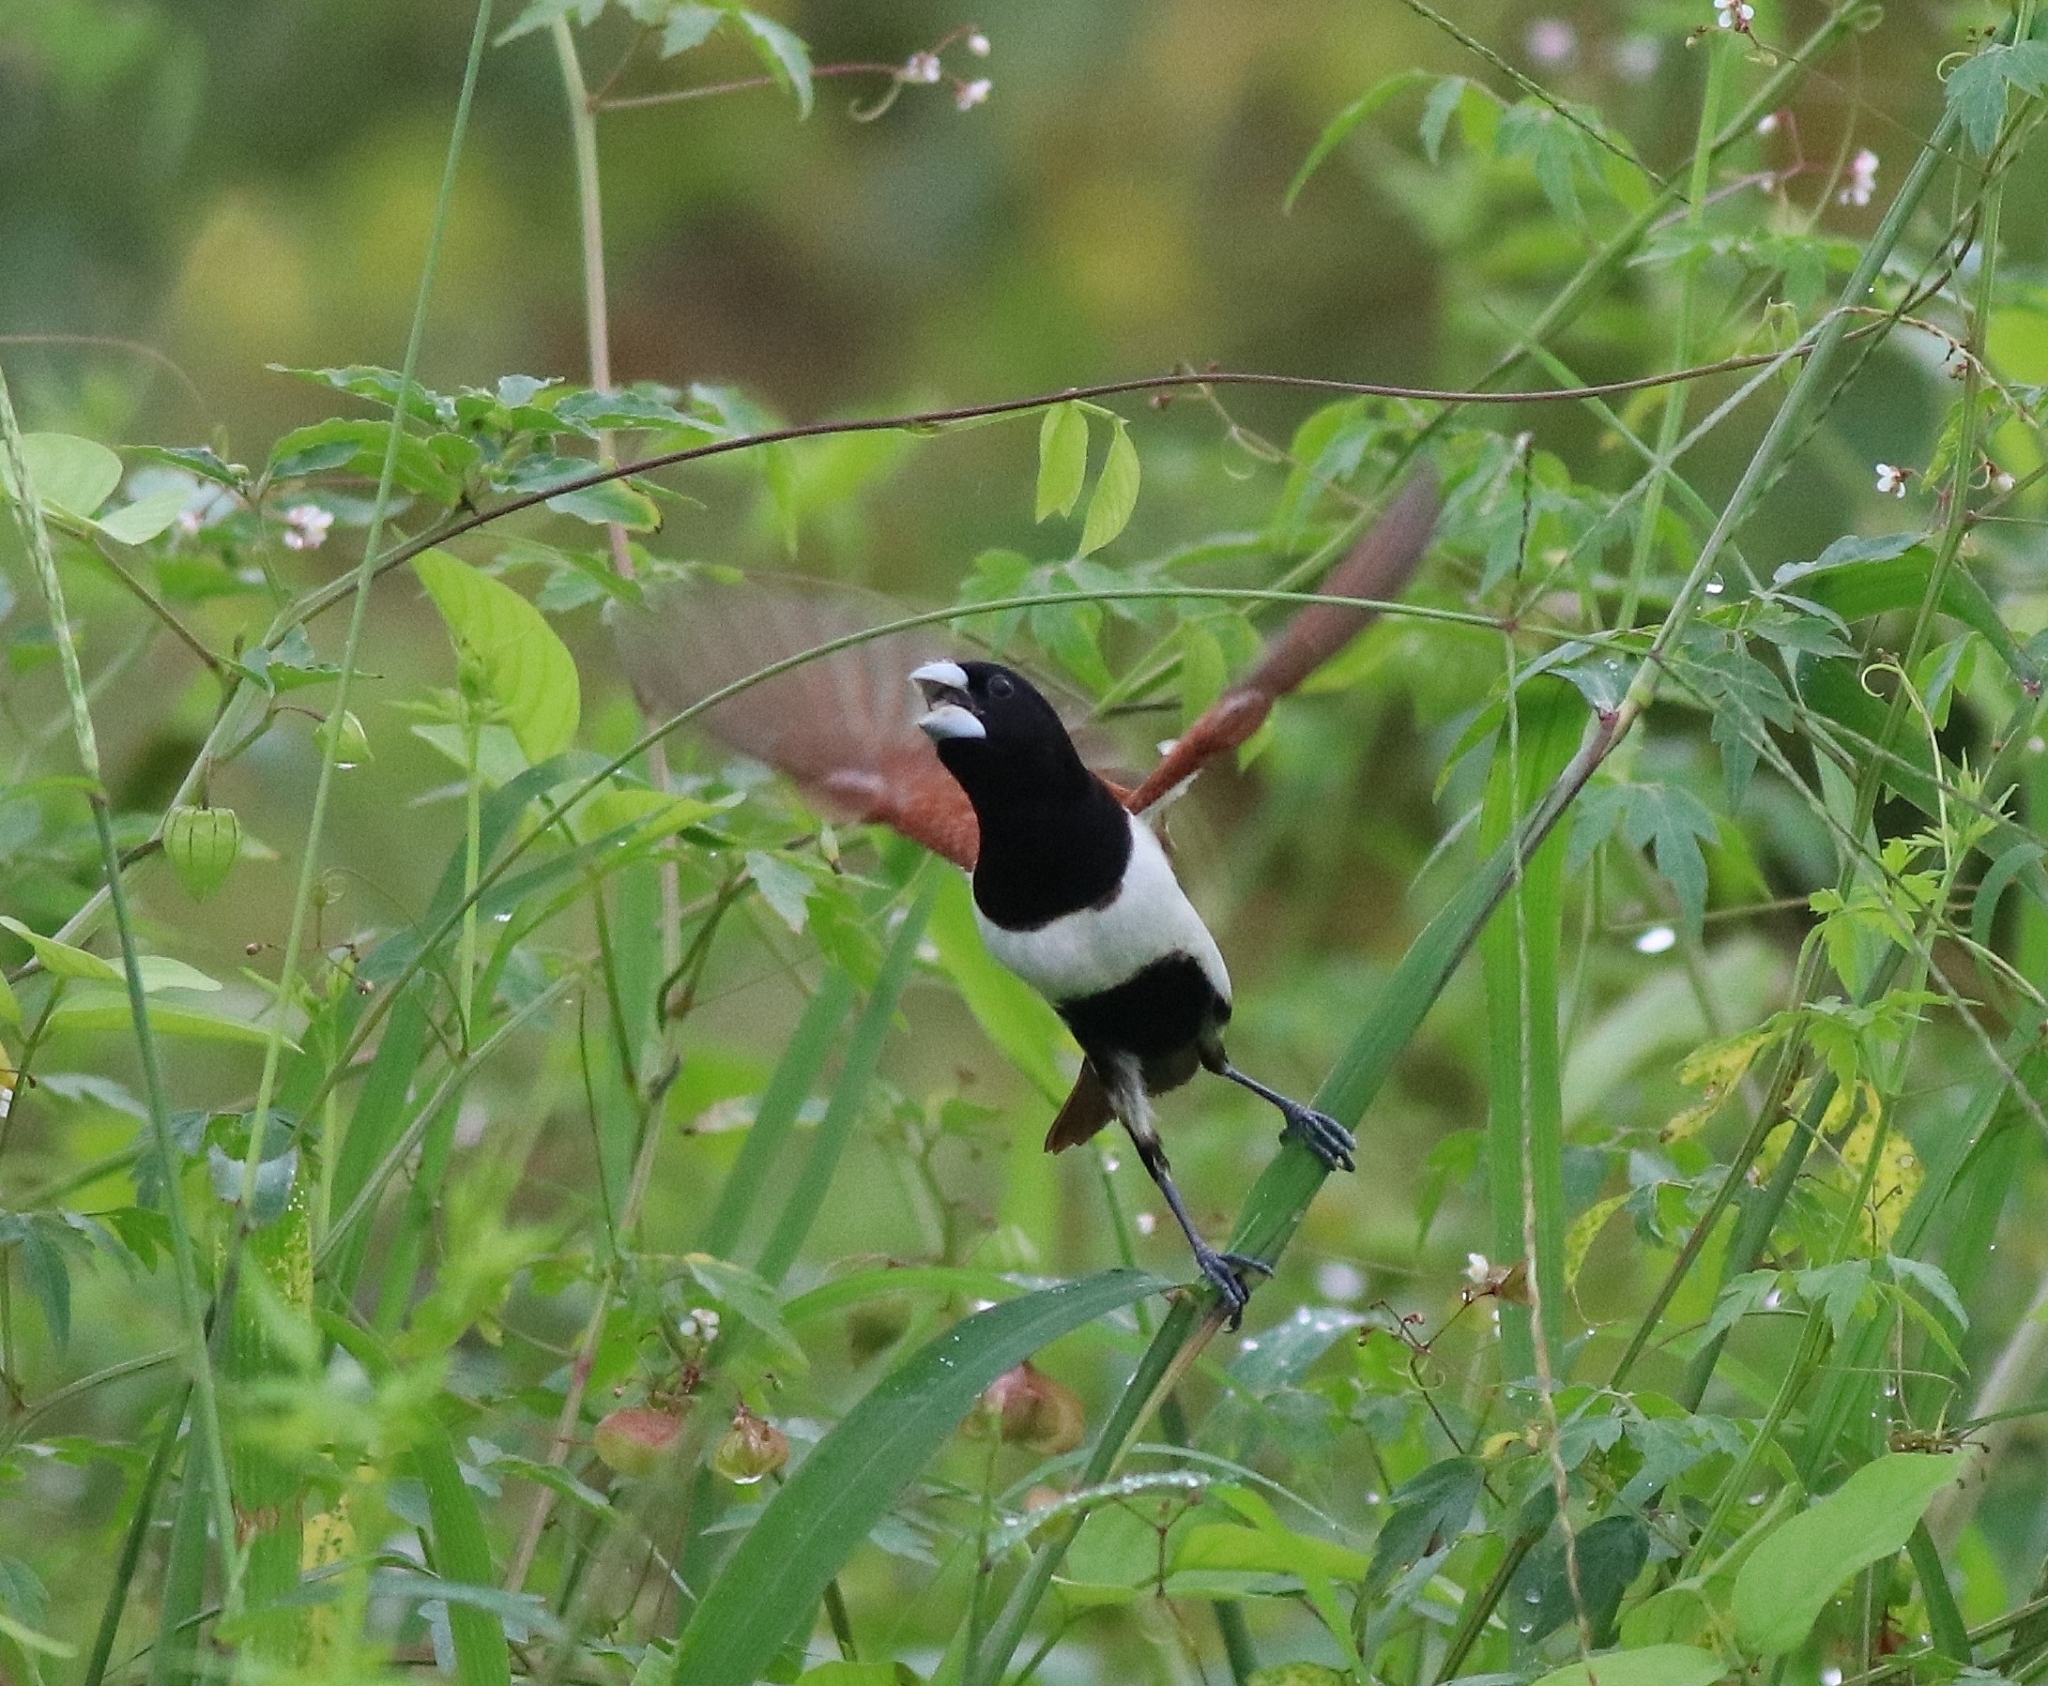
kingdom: Animalia
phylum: Chordata
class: Aves
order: Passeriformes
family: Estrildidae
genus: Lonchura
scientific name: Lonchura malacca
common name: Tricolored munia
